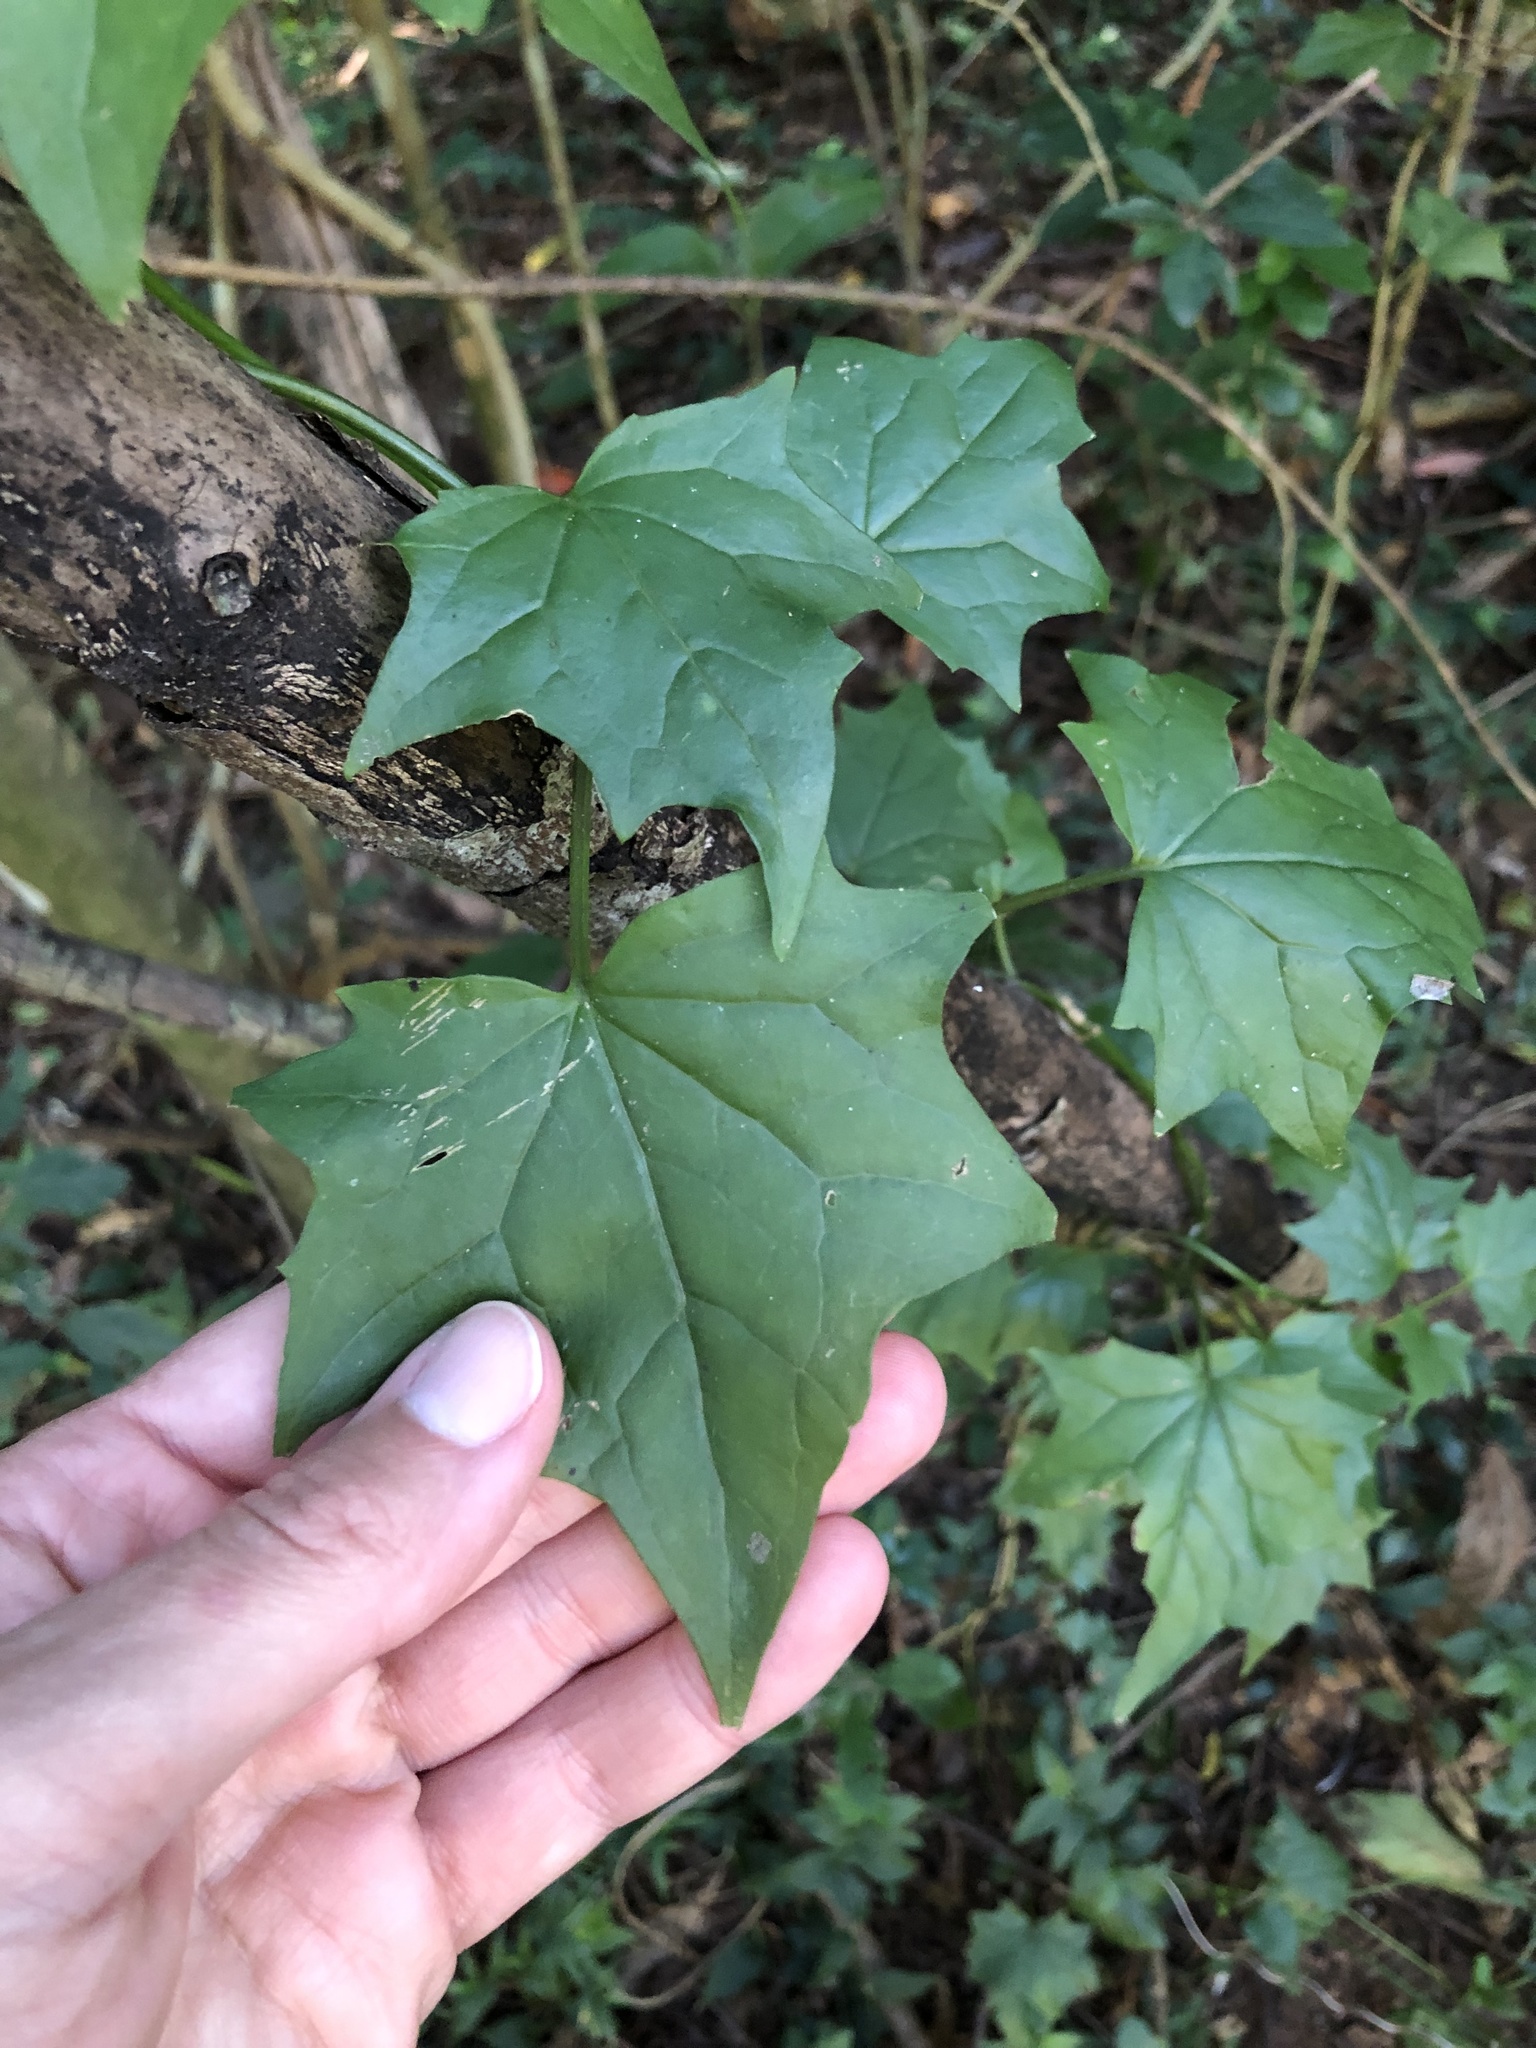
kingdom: Plantae
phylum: Tracheophyta
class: Magnoliopsida
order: Asterales
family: Asteraceae
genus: Senecio
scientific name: Senecio tamoides
